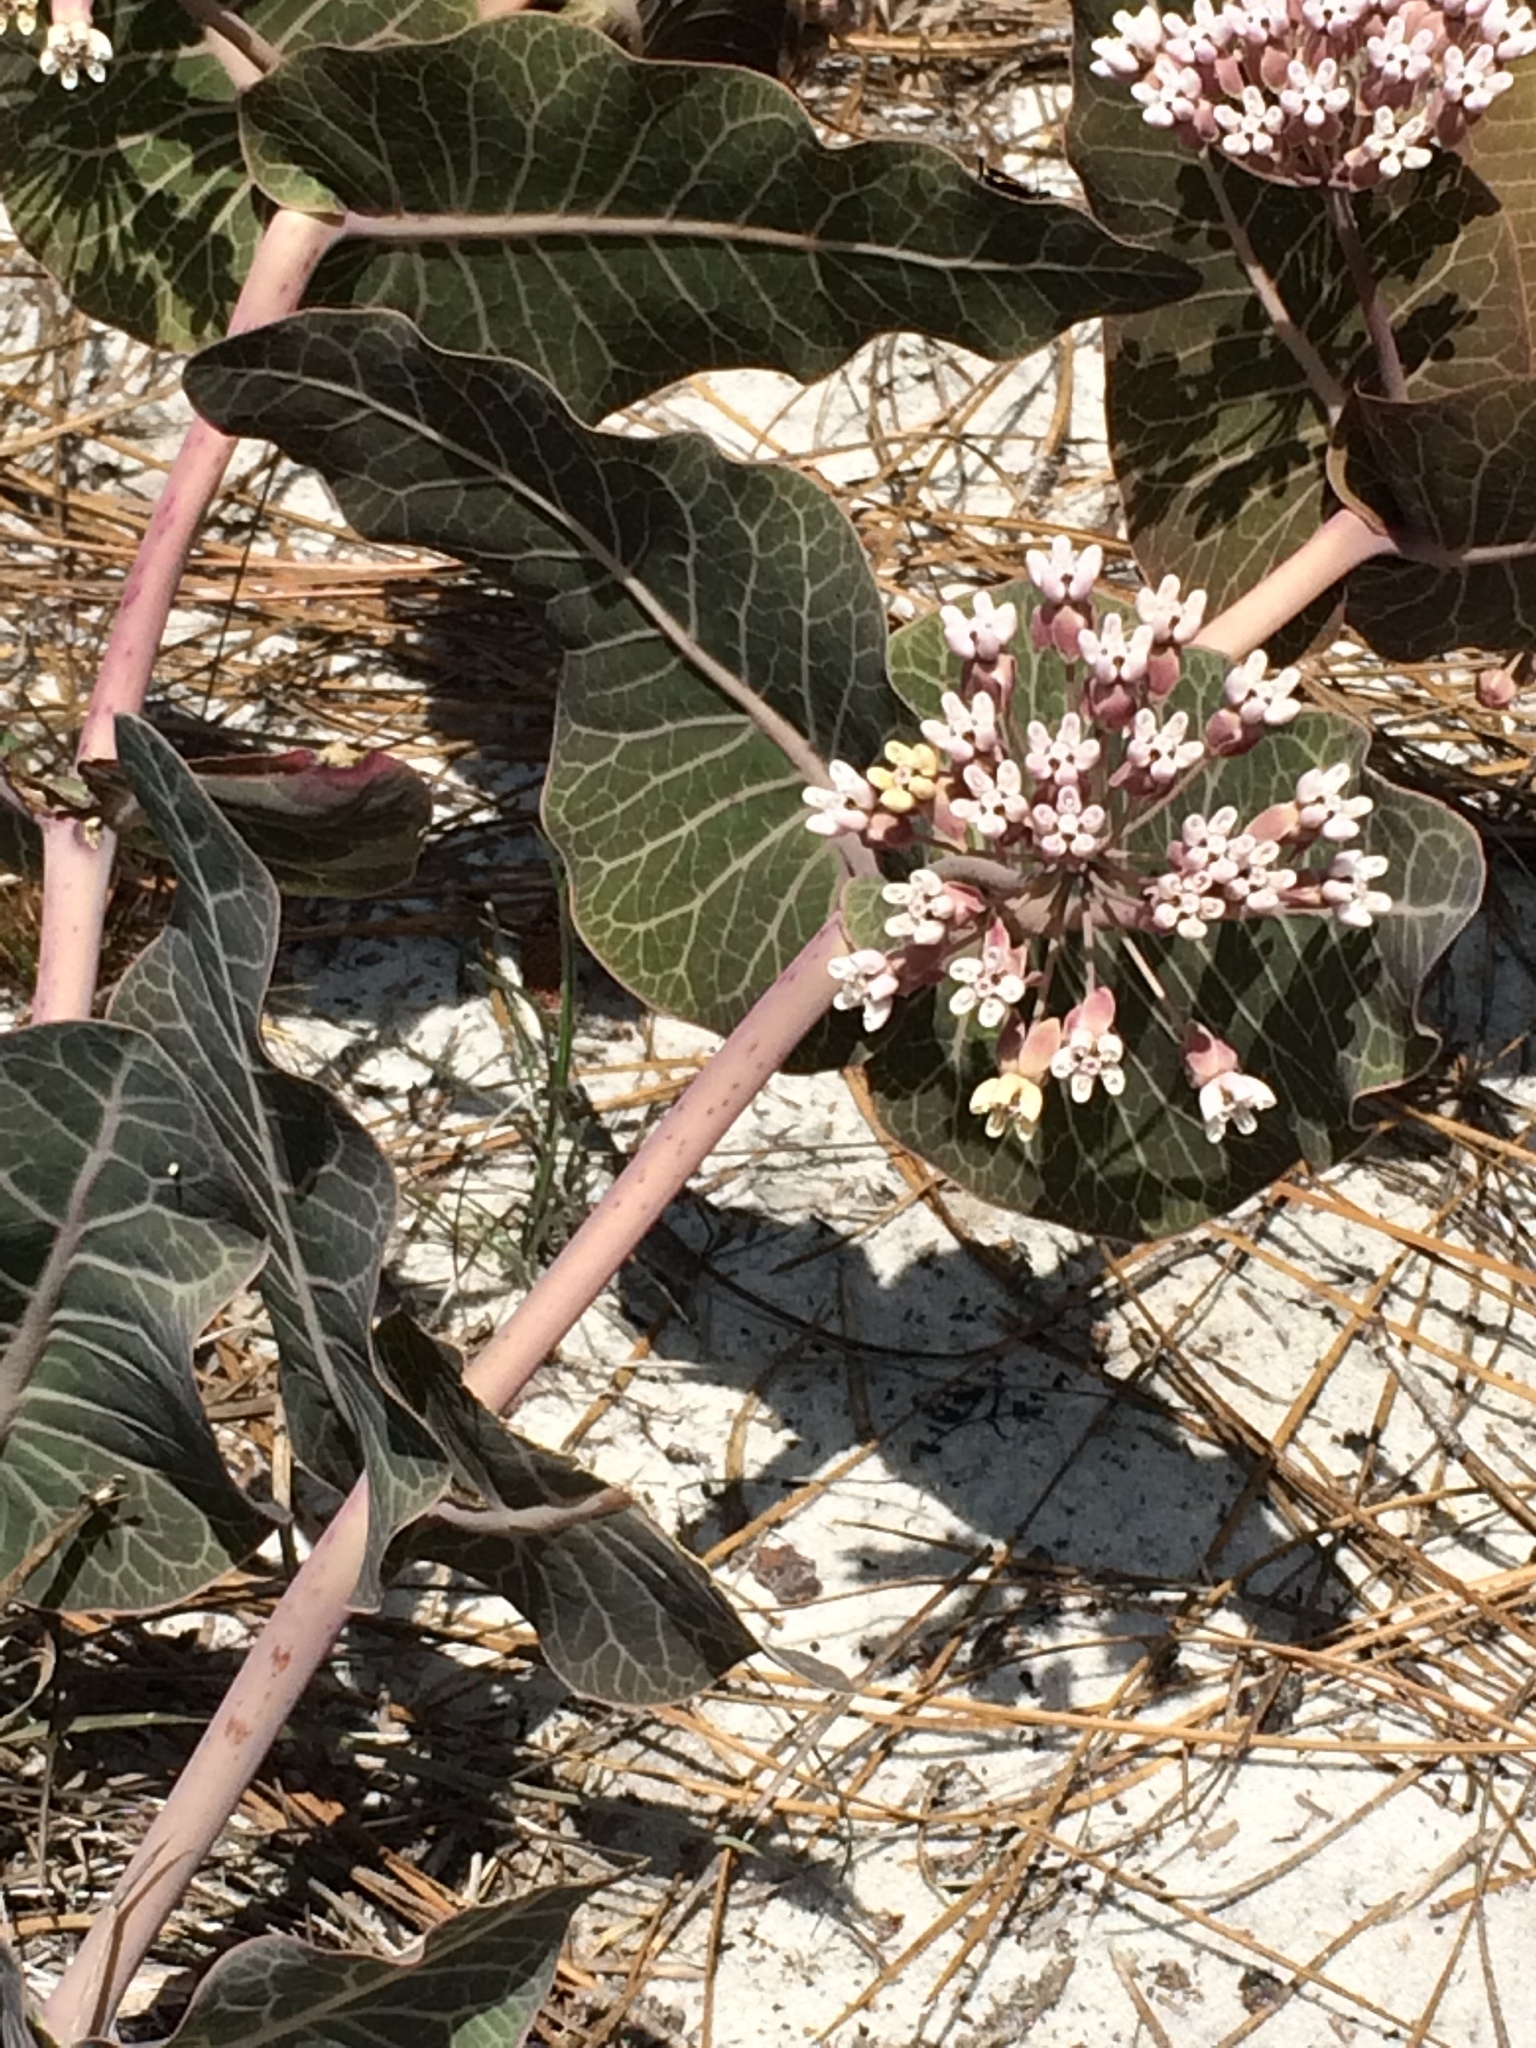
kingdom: Plantae
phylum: Tracheophyta
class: Magnoliopsida
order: Gentianales
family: Apocynaceae
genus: Asclepias
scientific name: Asclepias humistrata
